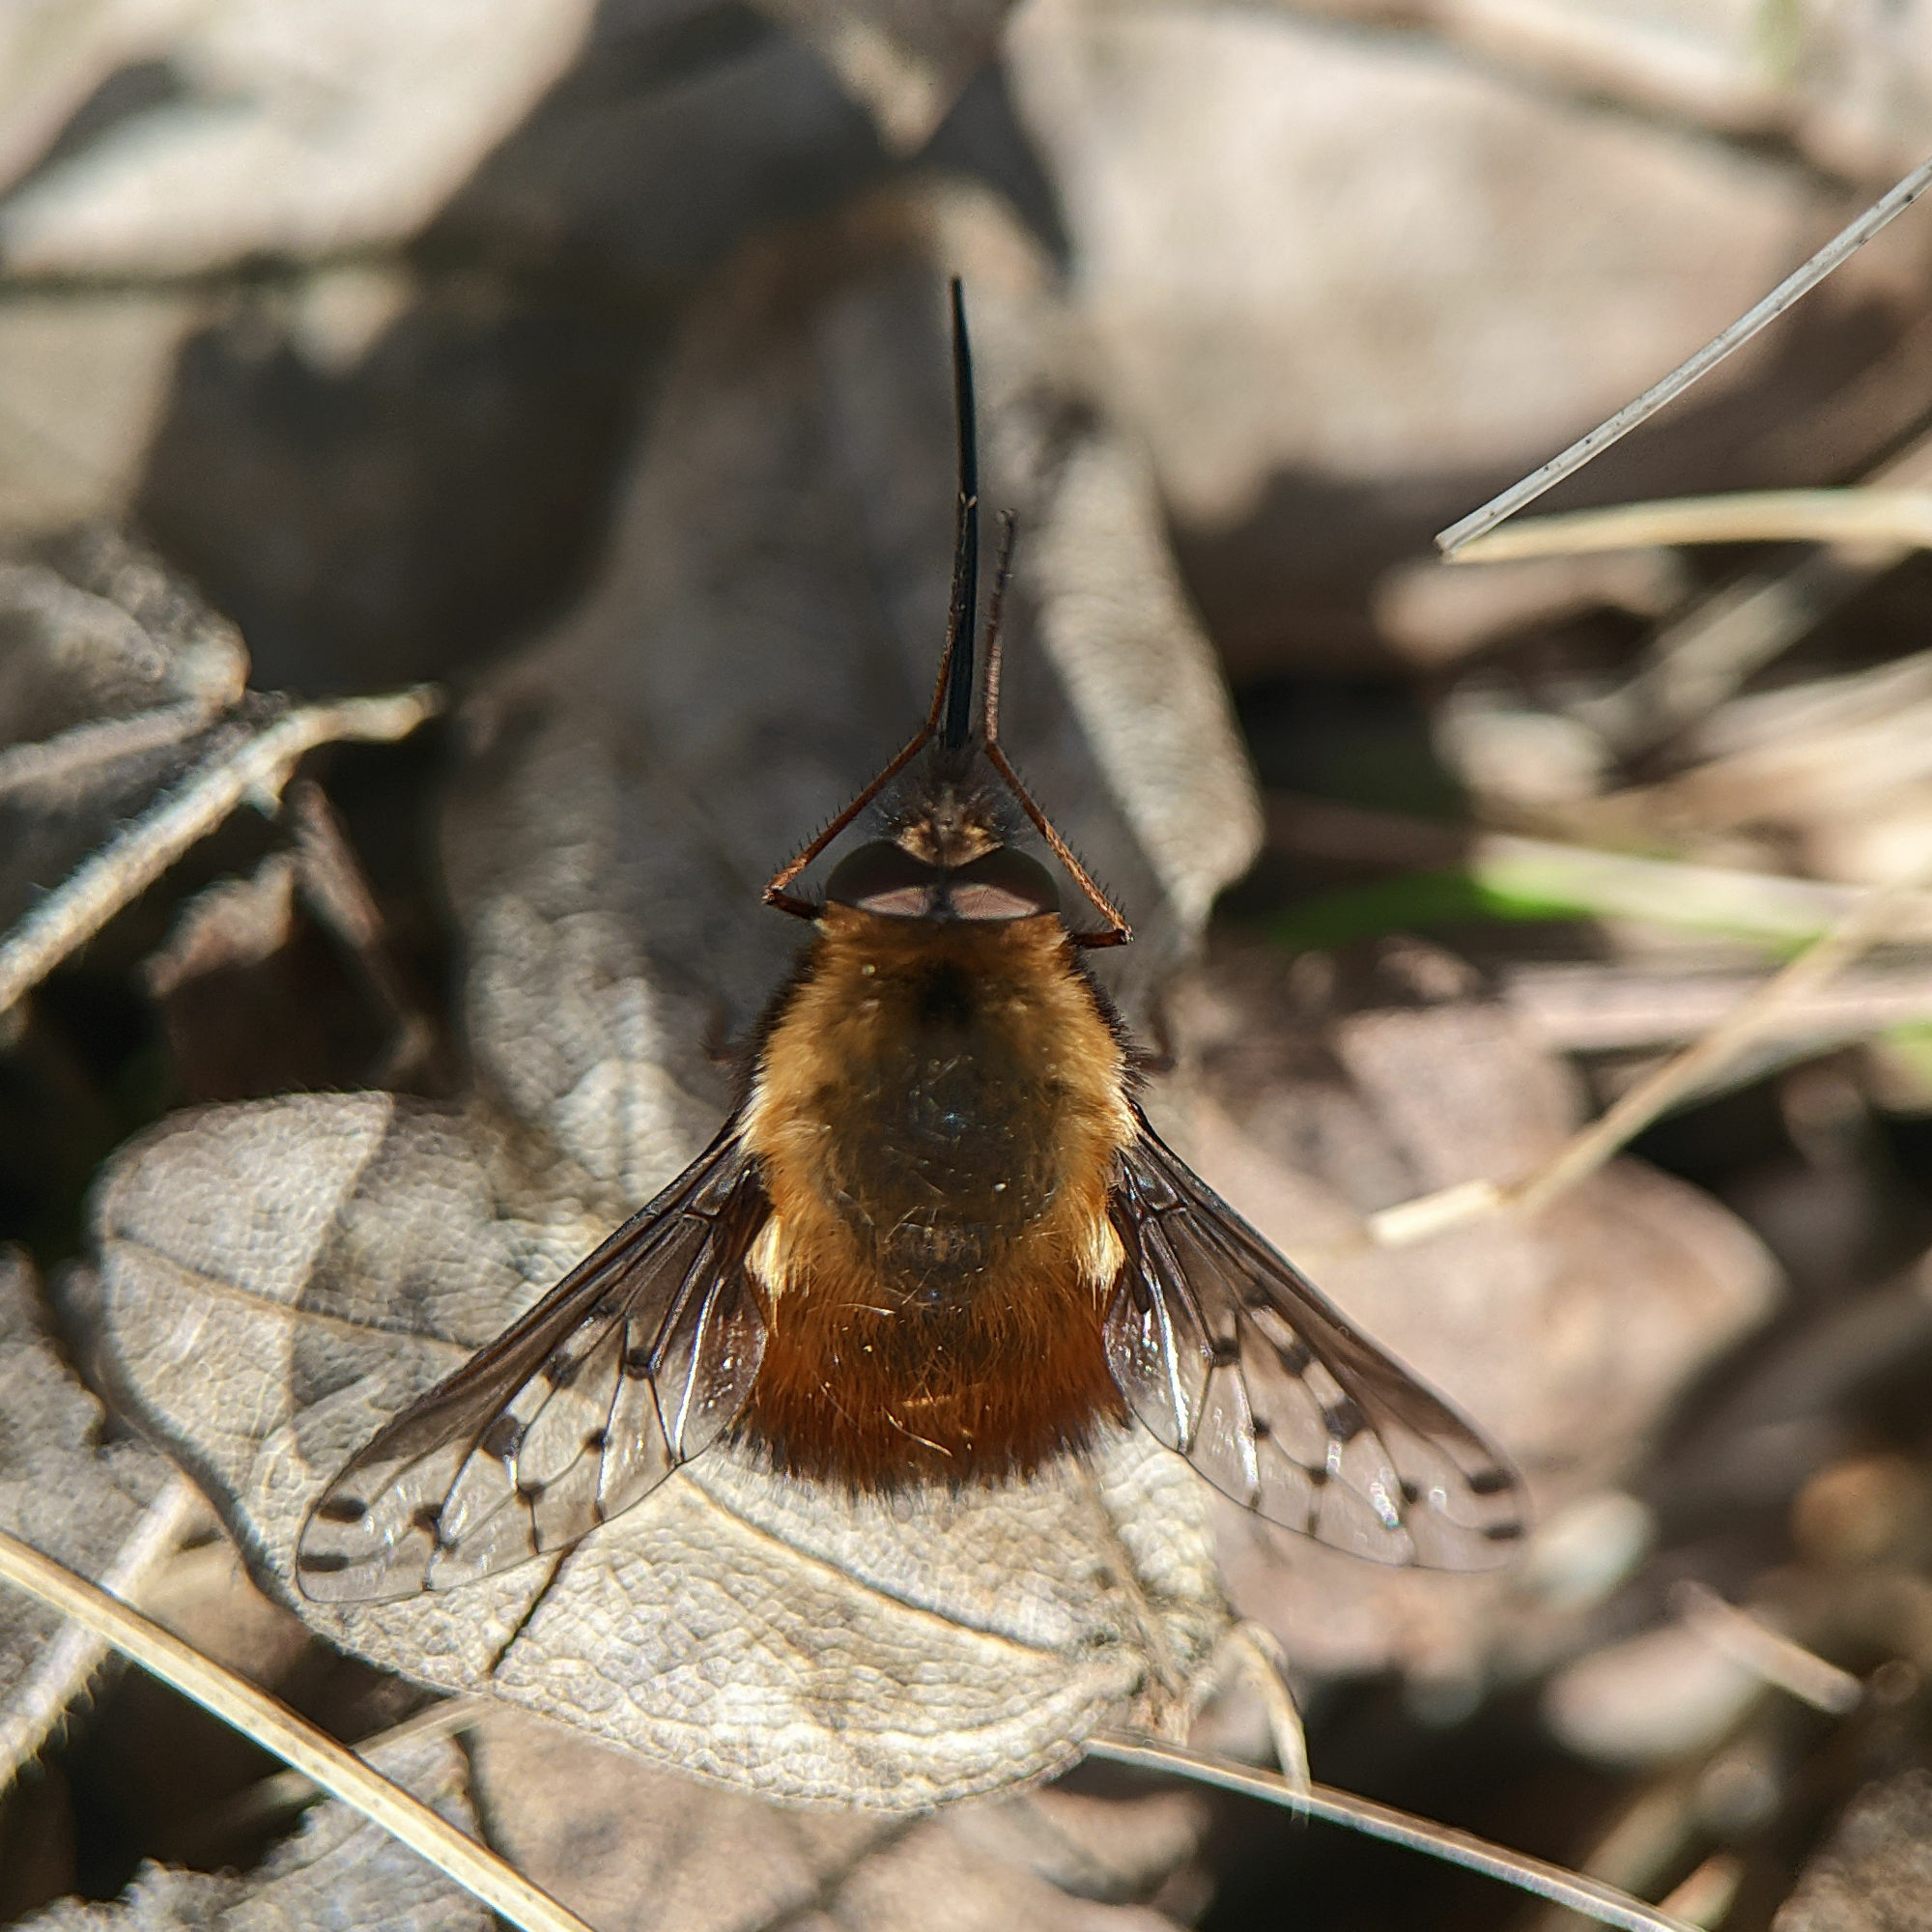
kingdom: Animalia
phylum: Arthropoda
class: Insecta
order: Diptera
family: Bombyliidae
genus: Bombylius
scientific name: Bombylius discolor
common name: Dotted bee-fly
